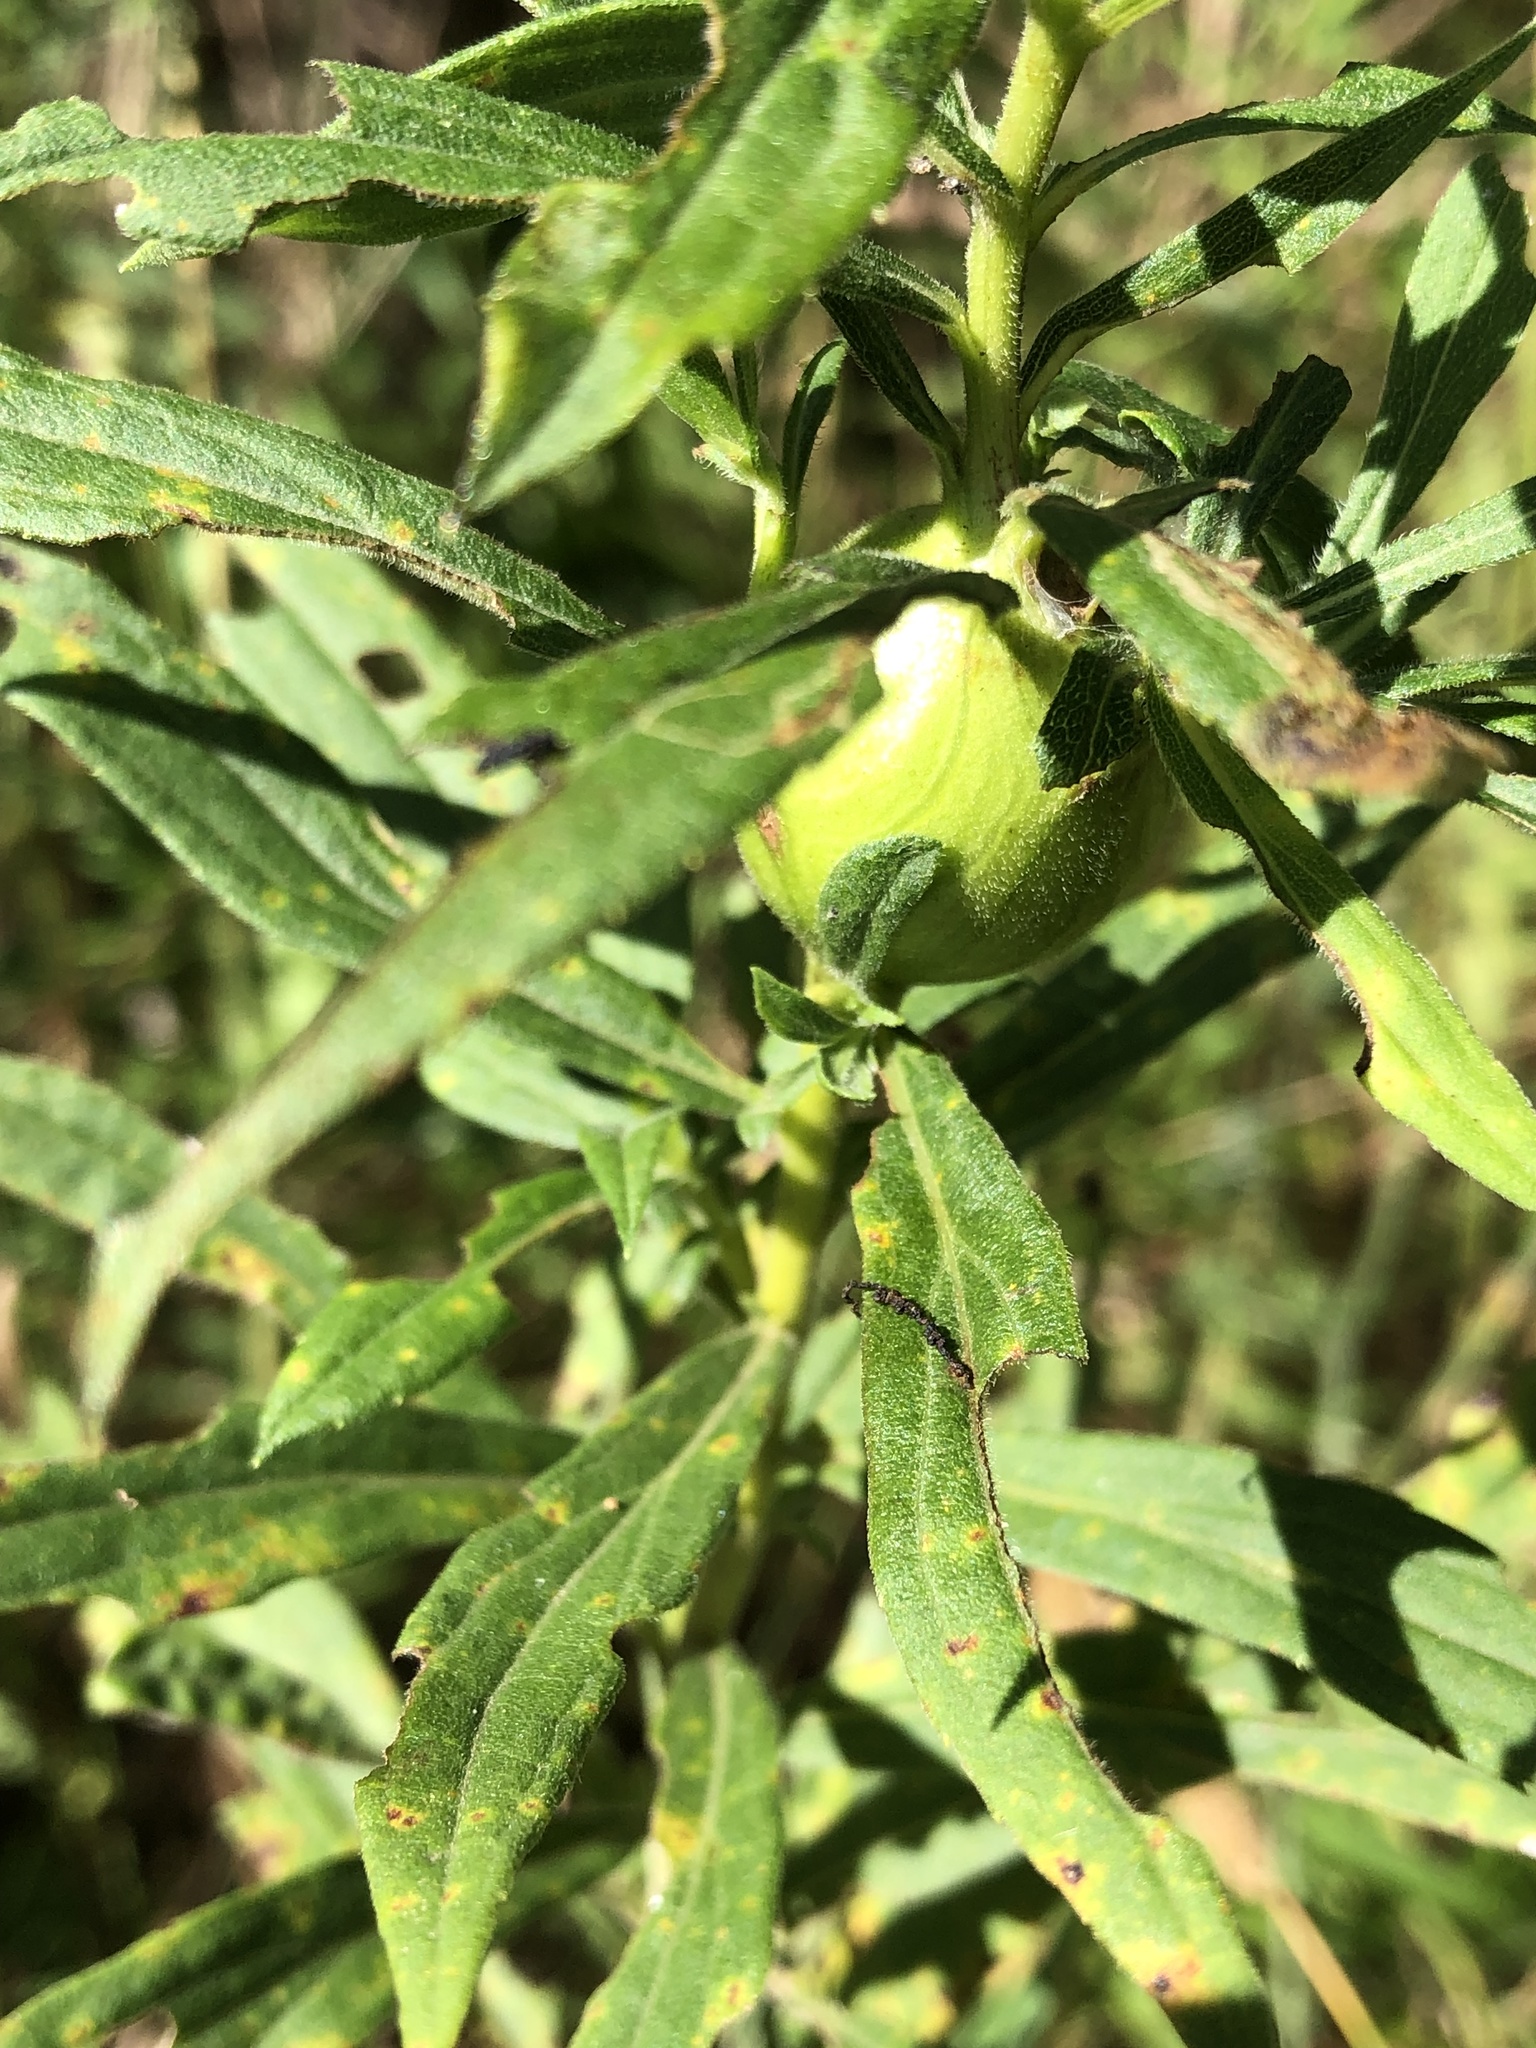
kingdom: Animalia
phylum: Arthropoda
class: Insecta
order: Diptera
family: Tephritidae
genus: Eurosta
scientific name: Eurosta solidaginis
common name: Goldenrod gall fly
